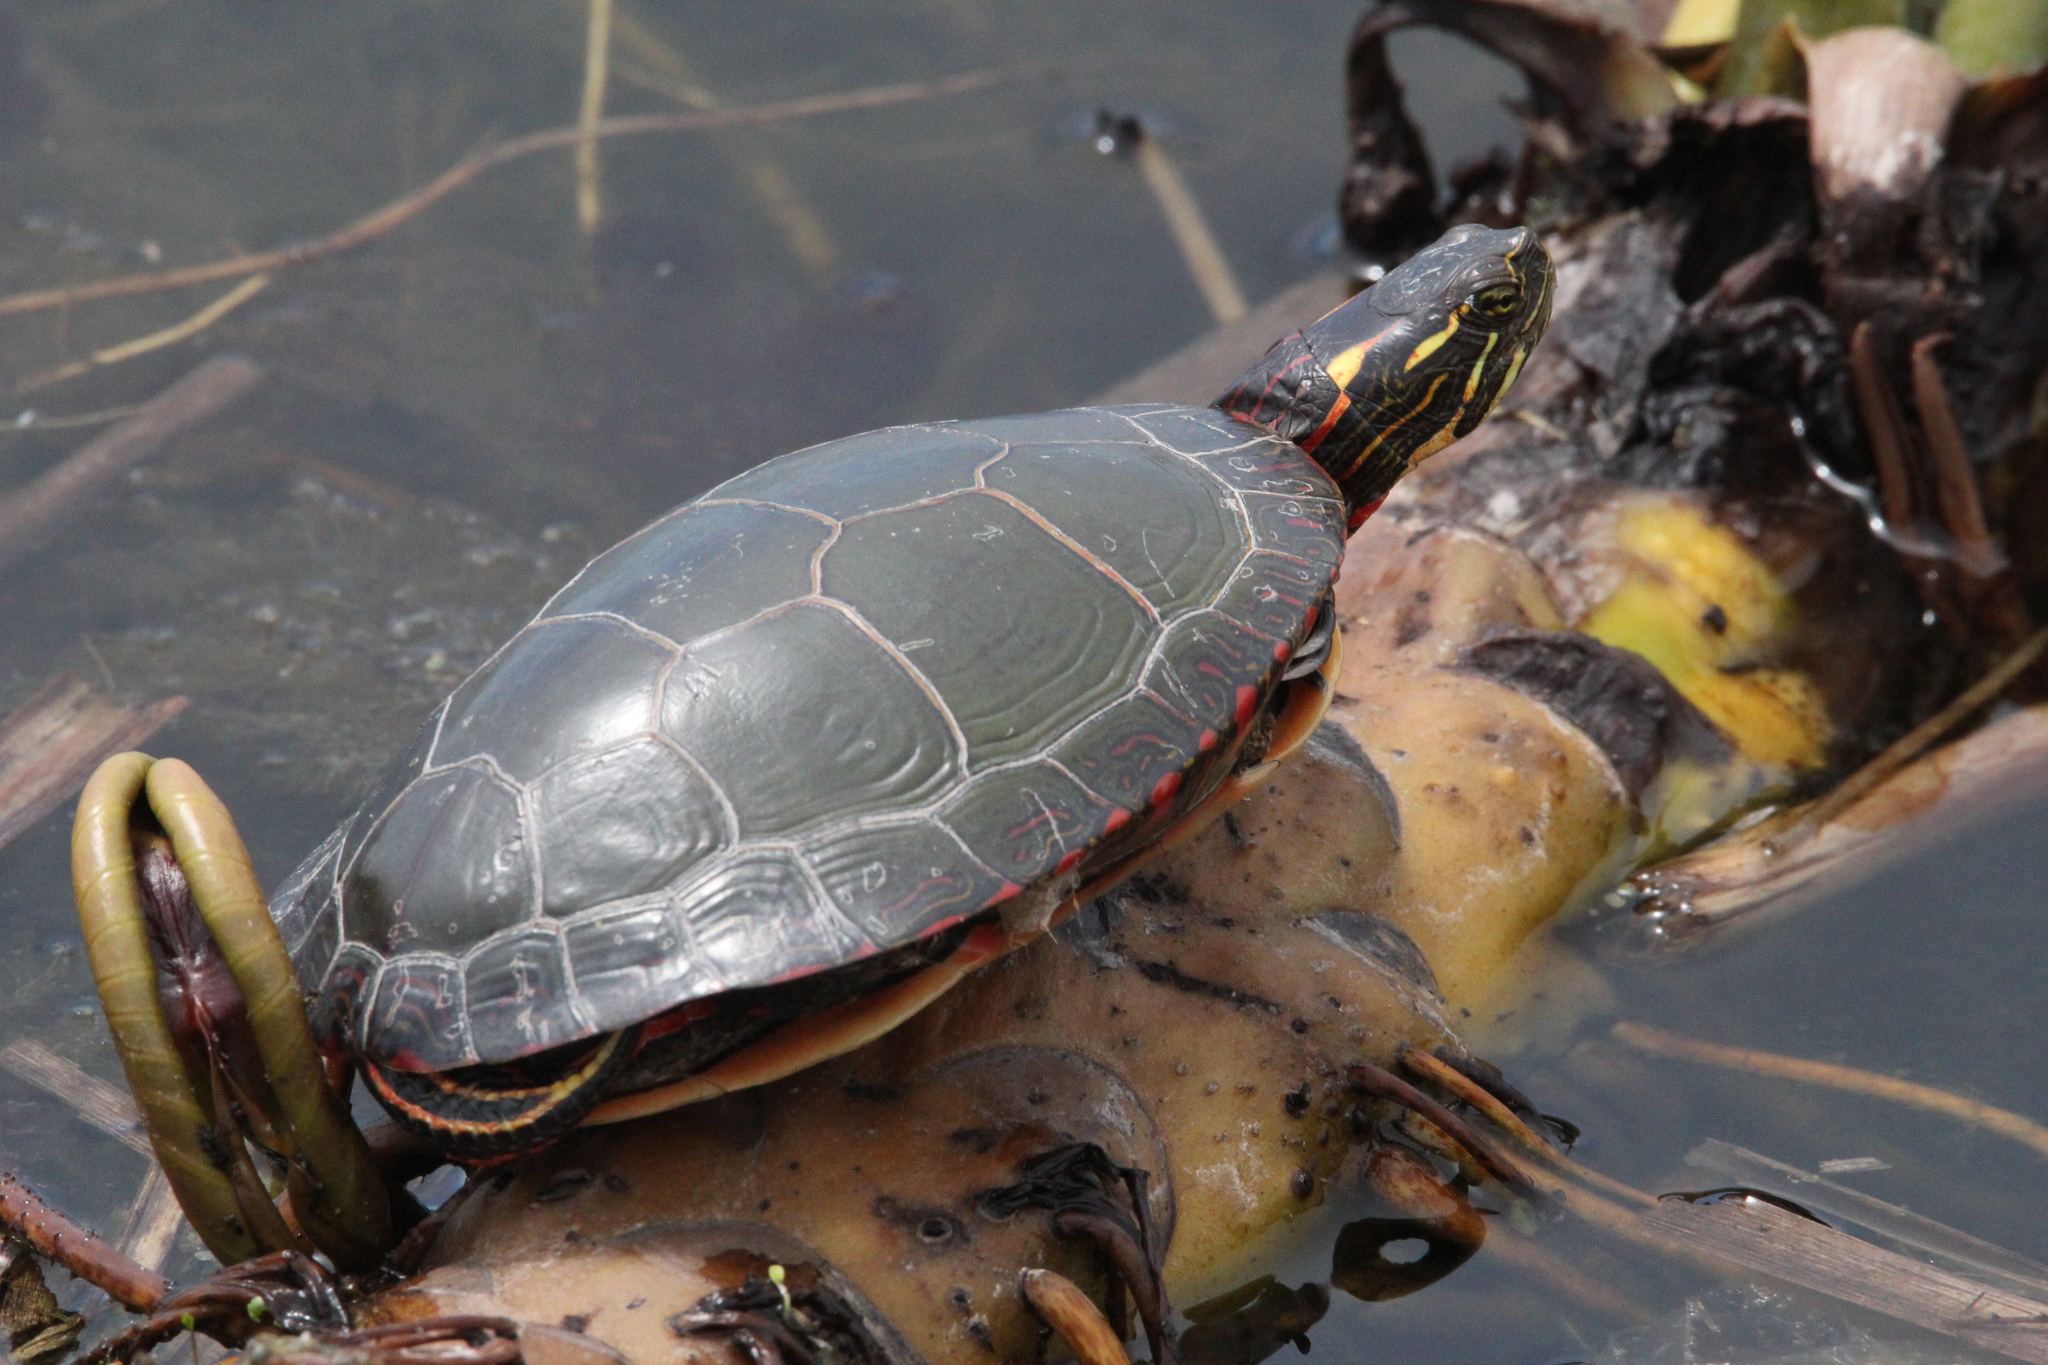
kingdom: Animalia
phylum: Chordata
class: Testudines
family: Emydidae
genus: Chrysemys
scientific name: Chrysemys picta
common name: Painted turtle
